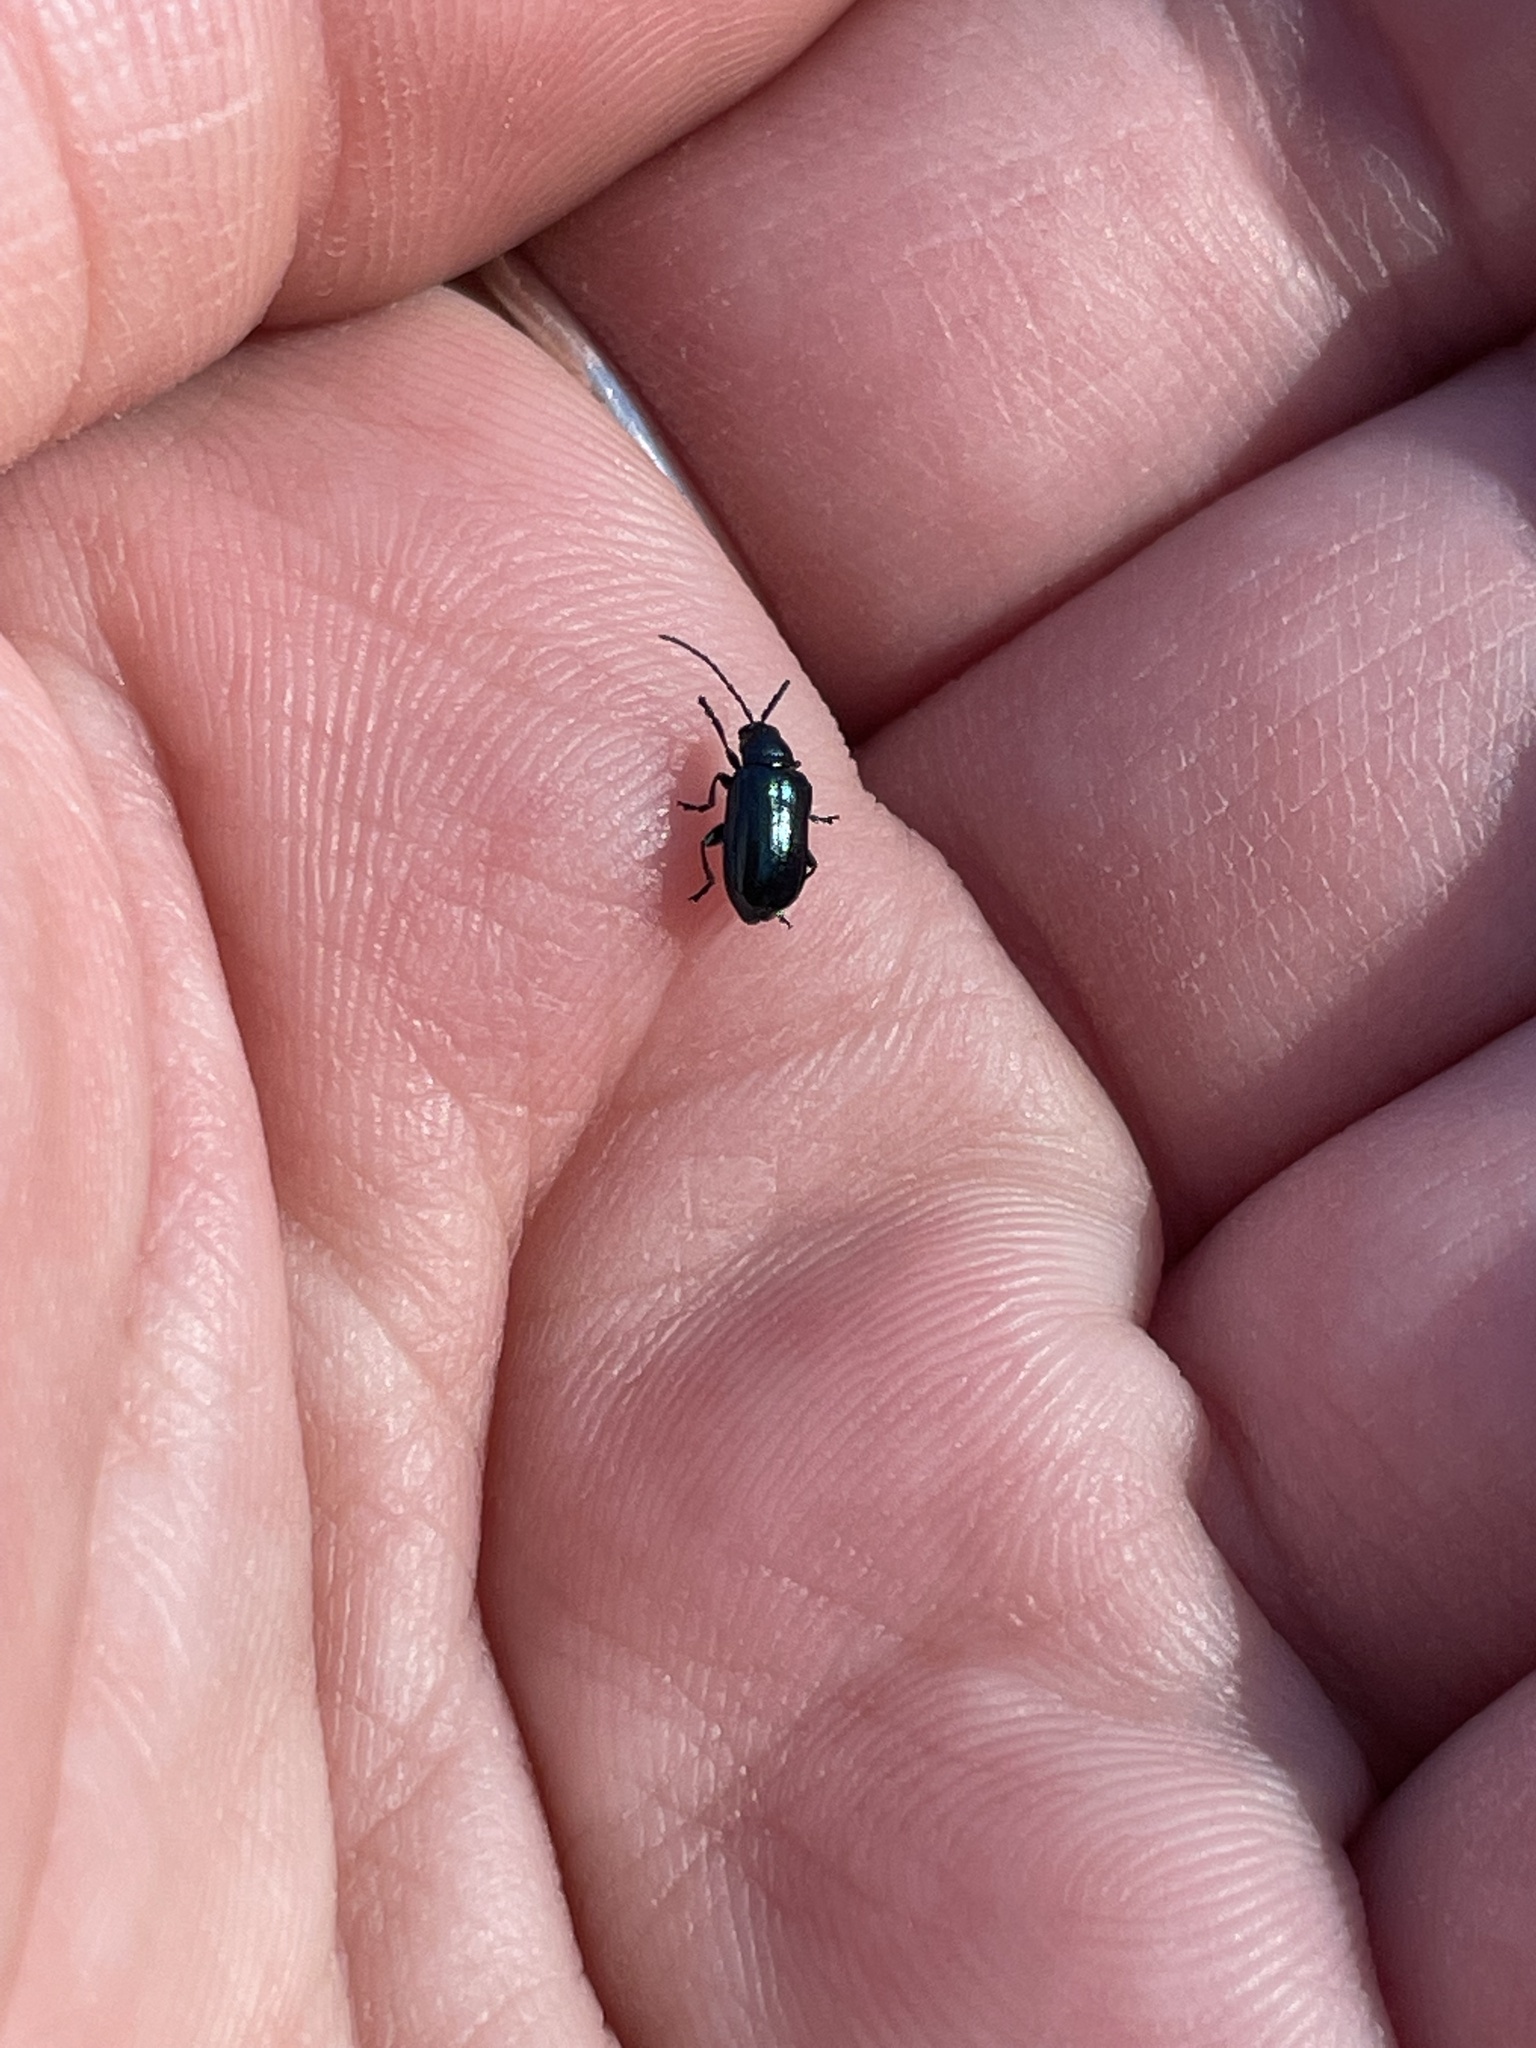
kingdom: Animalia
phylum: Arthropoda
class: Insecta
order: Coleoptera
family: Chrysomelidae
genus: Altica
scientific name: Altica ambiens
